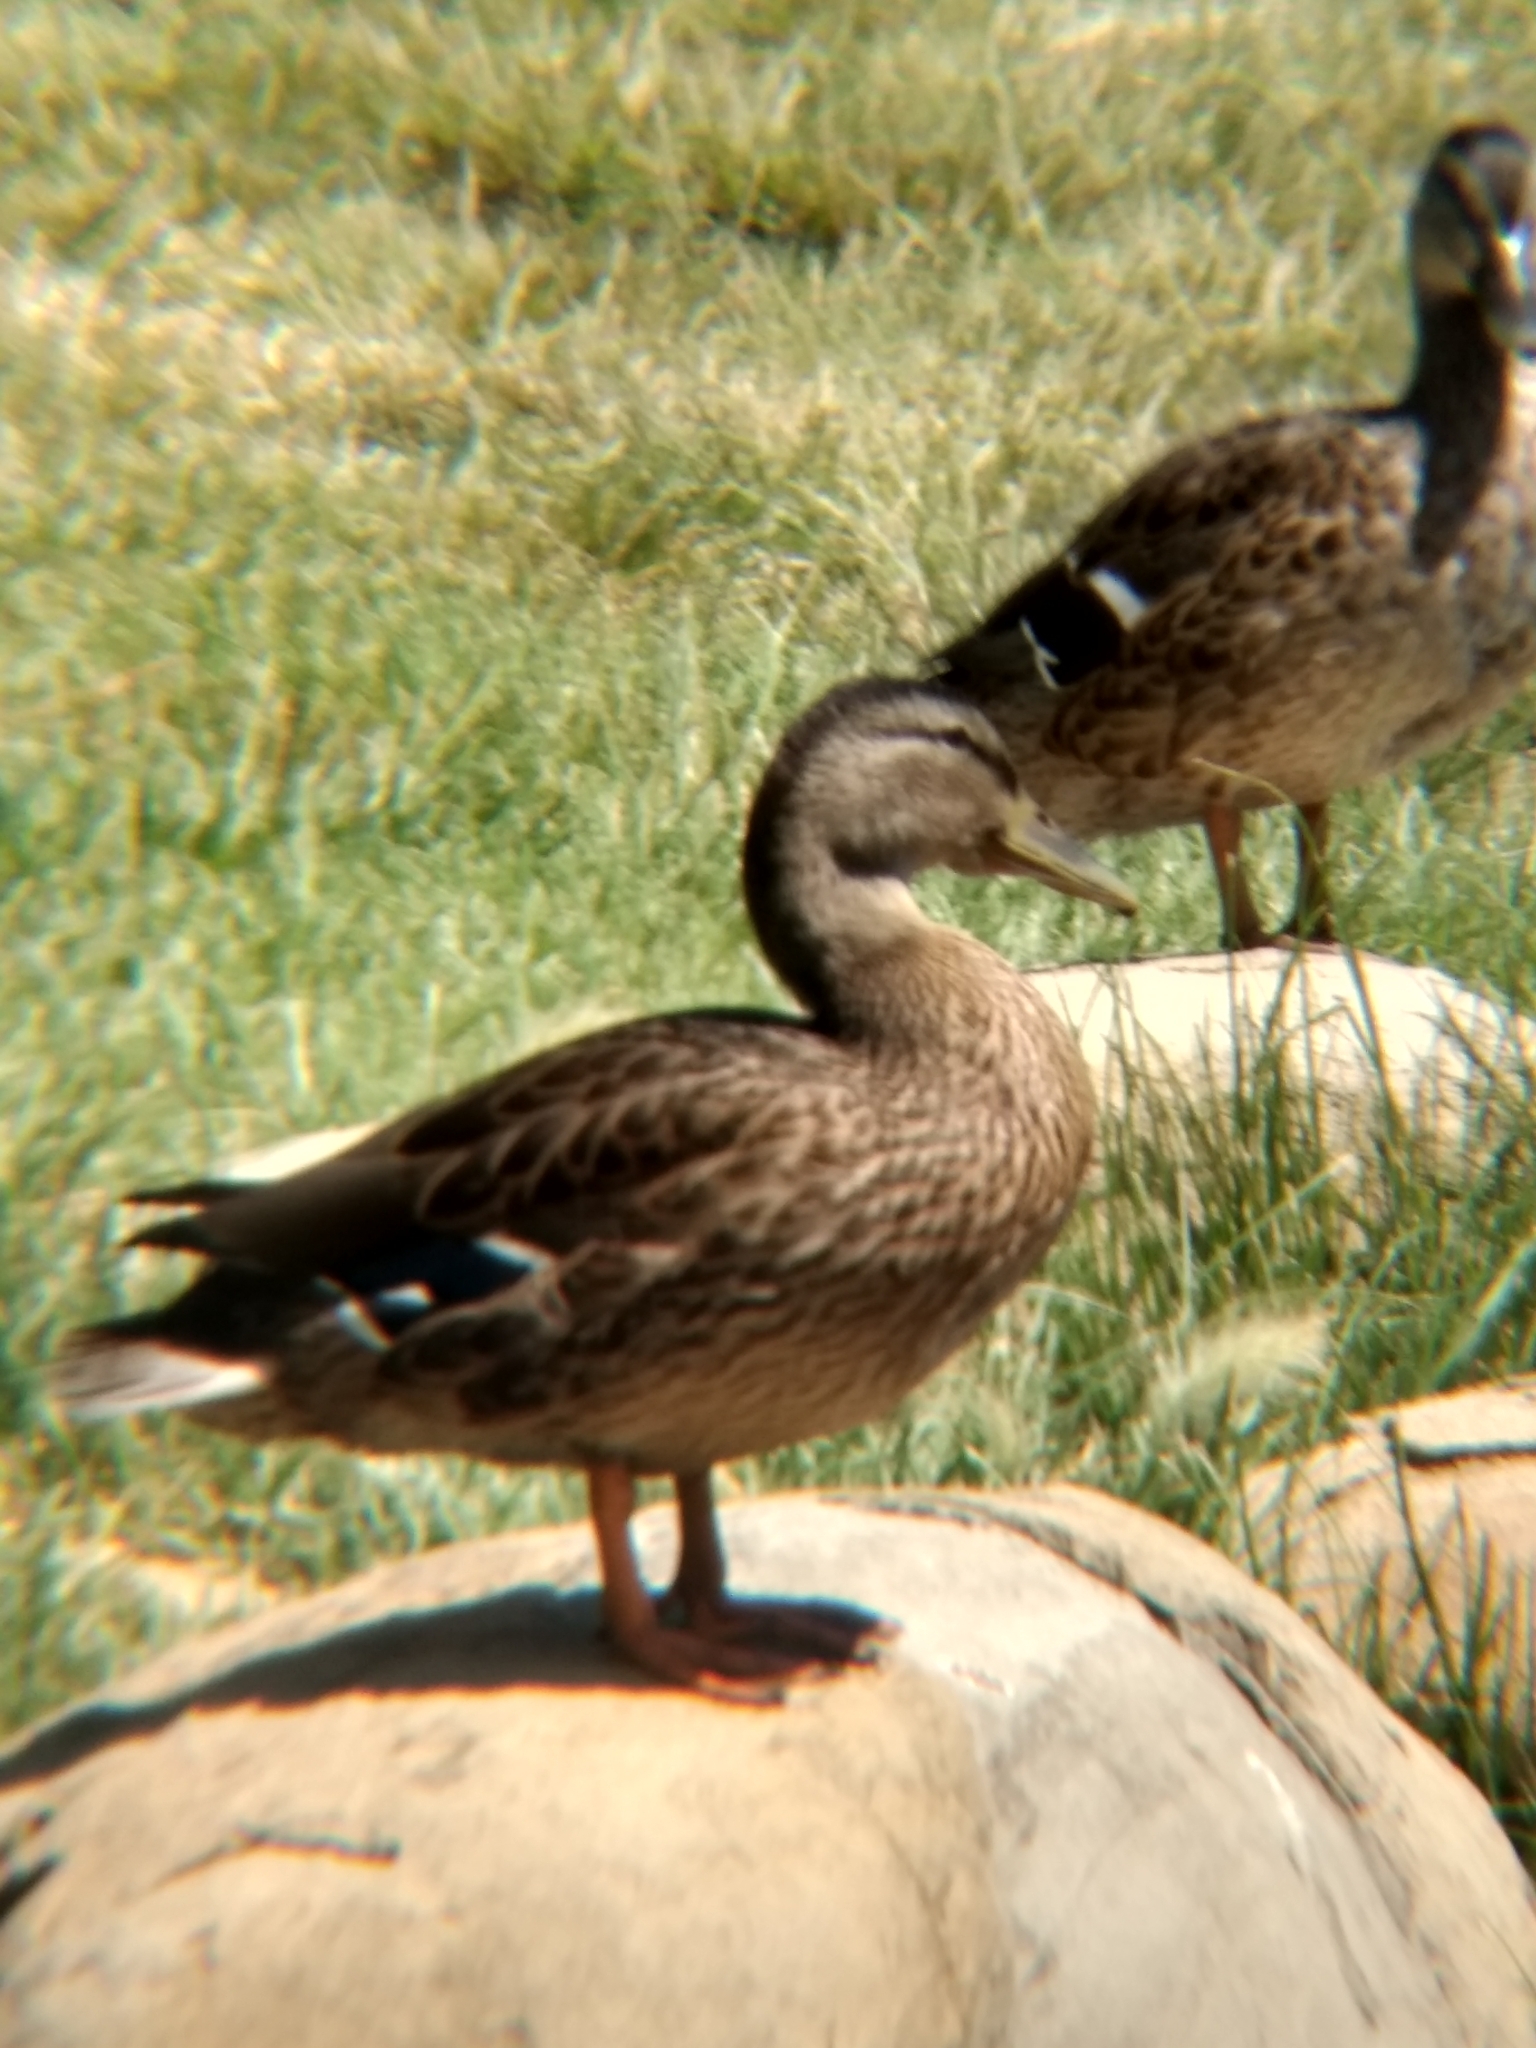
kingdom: Animalia
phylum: Chordata
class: Aves
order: Anseriformes
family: Anatidae
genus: Anas
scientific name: Anas platyrhynchos
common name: Mallard
